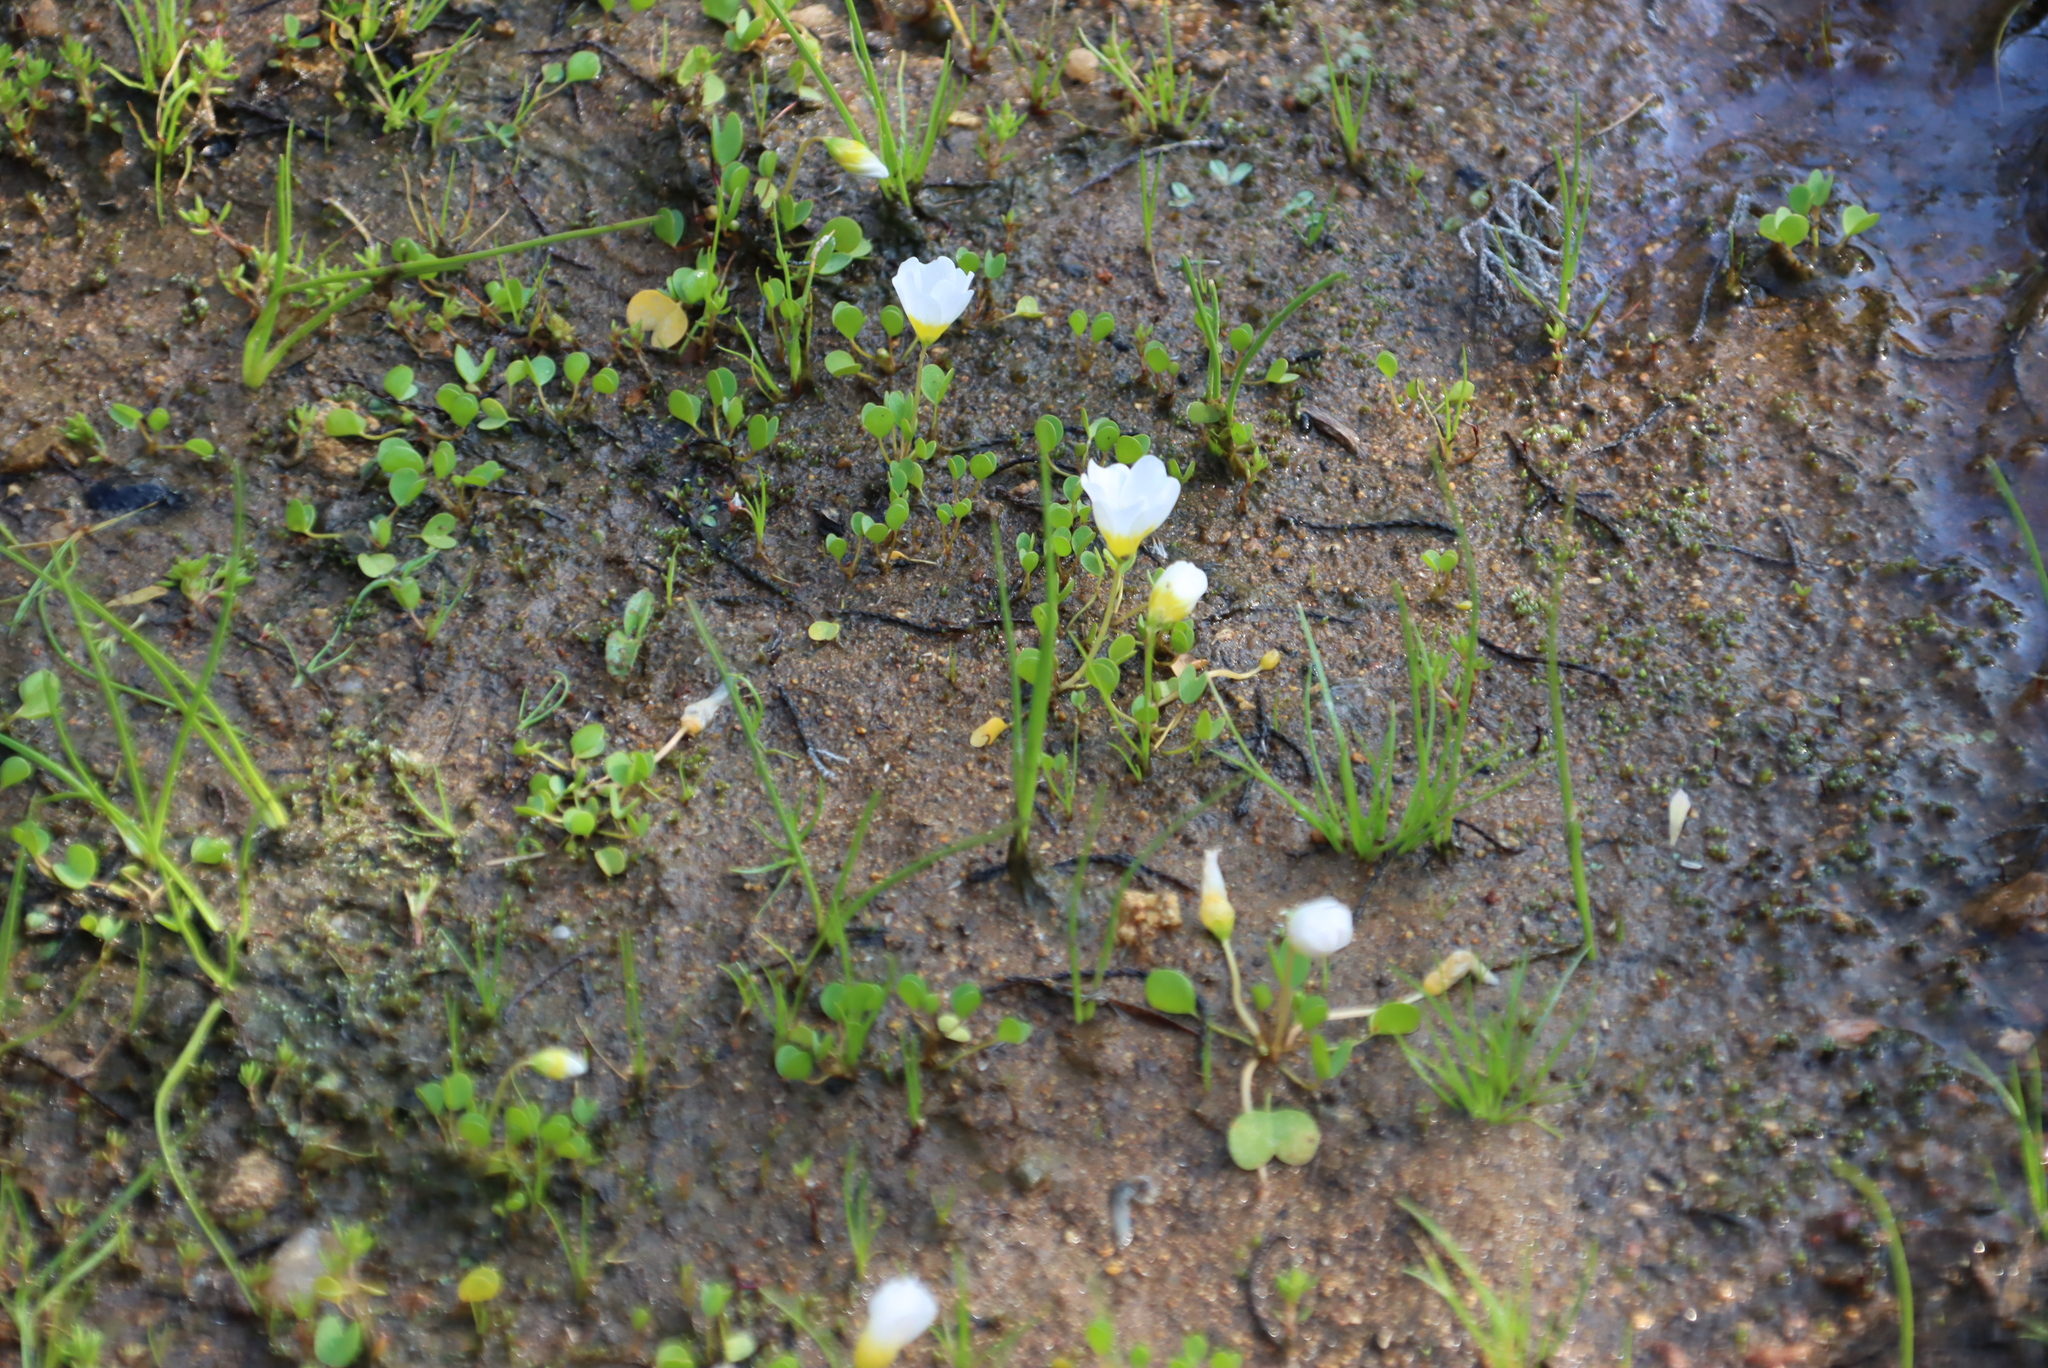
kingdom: Plantae
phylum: Tracheophyta
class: Magnoliopsida
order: Oxalidales
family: Oxalidaceae
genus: Oxalis
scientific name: Oxalis dregei
